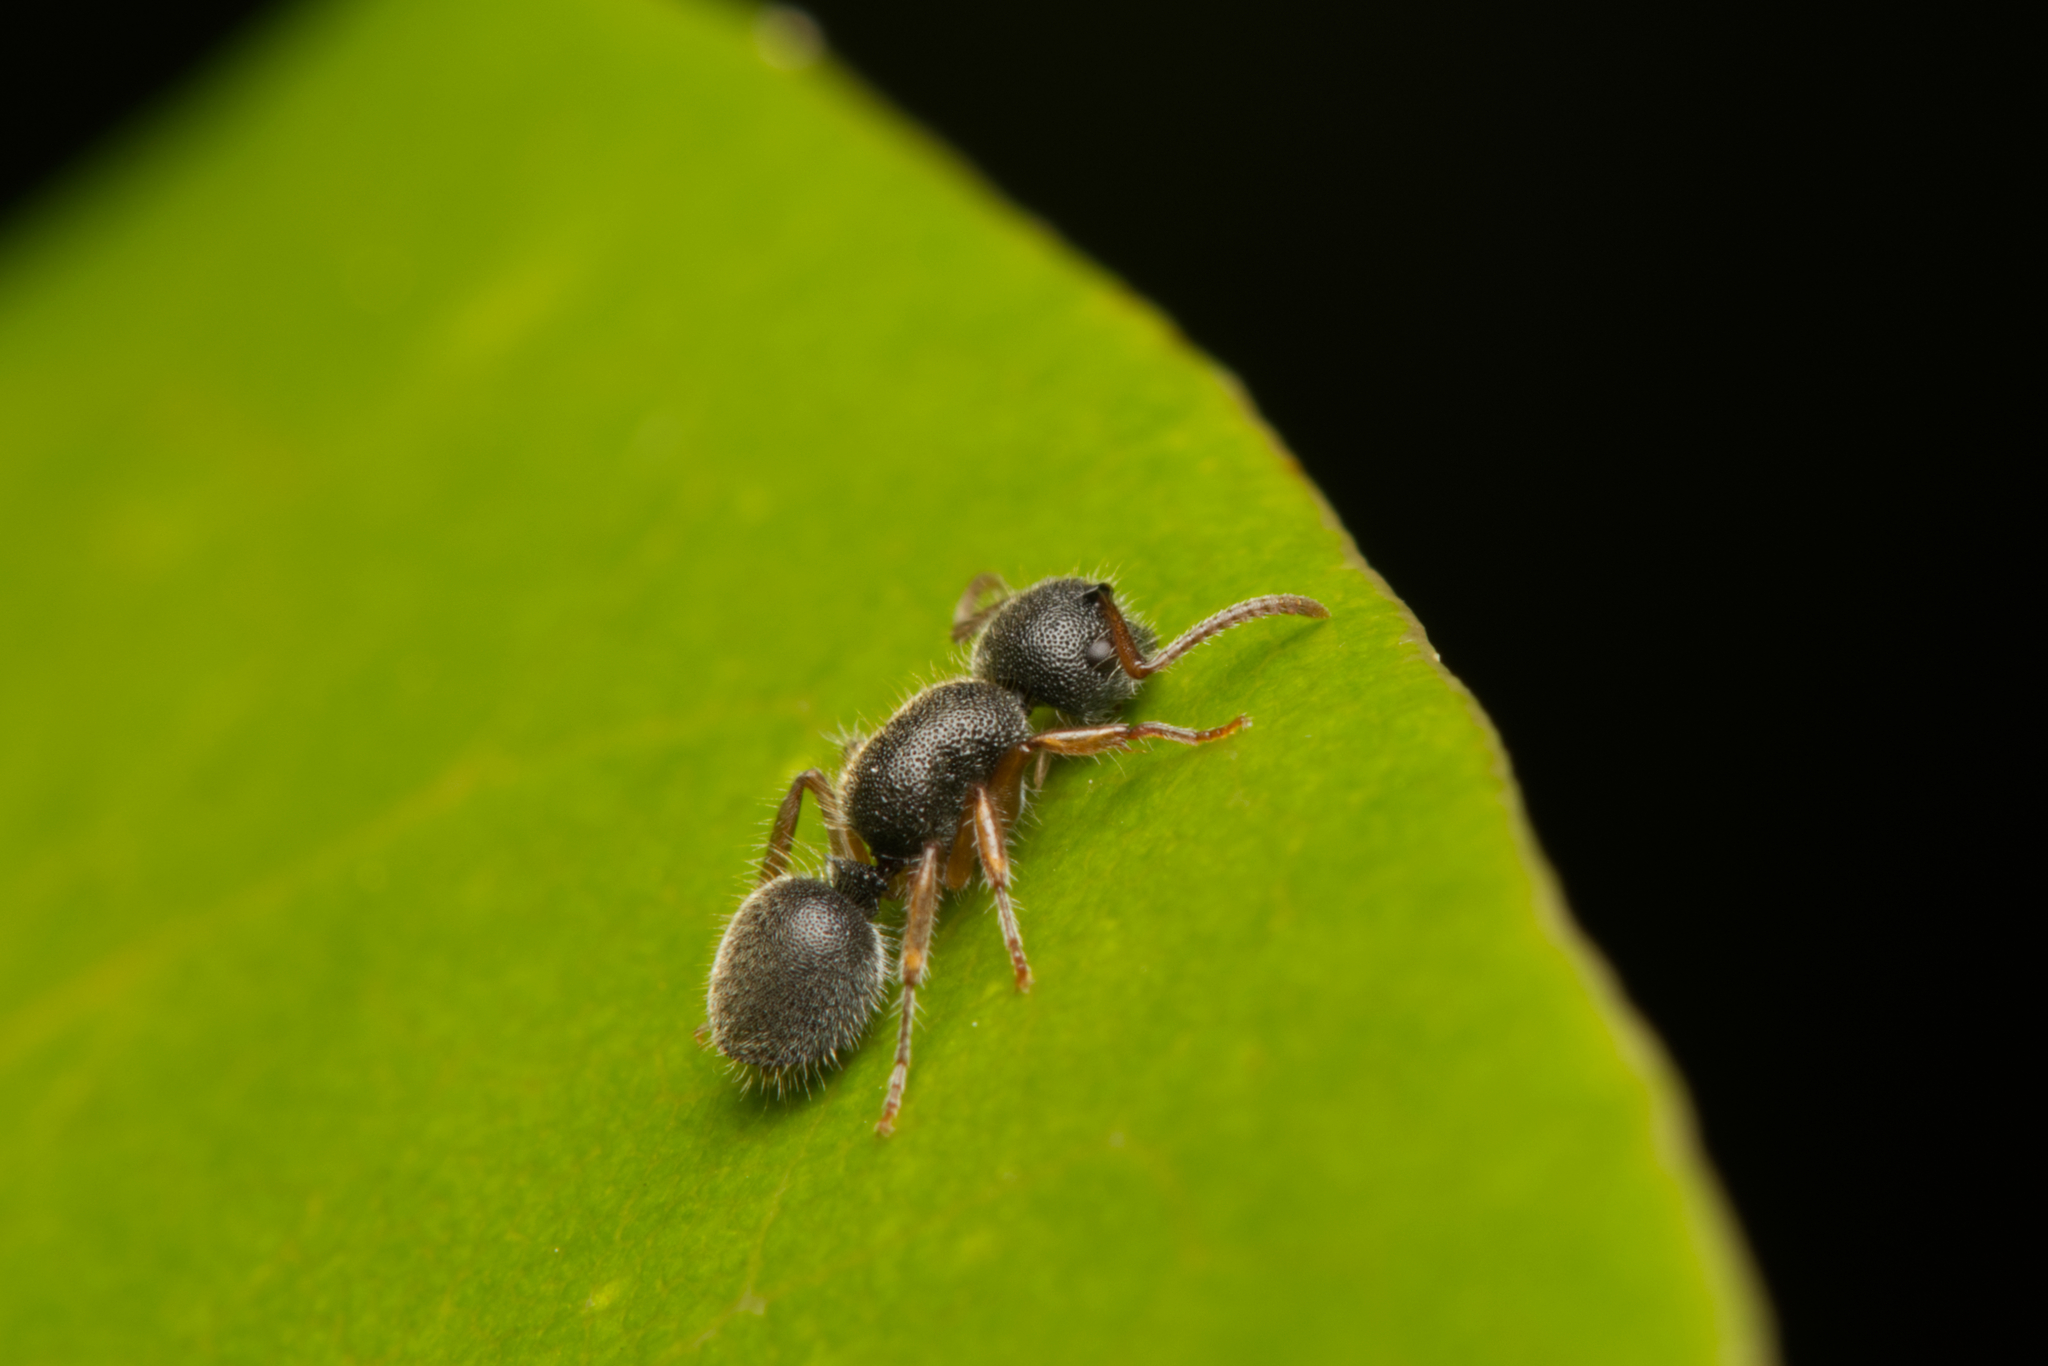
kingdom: Animalia
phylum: Arthropoda
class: Insecta
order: Hymenoptera
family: Formicidae
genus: Echinopla
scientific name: Echinopla turneri
